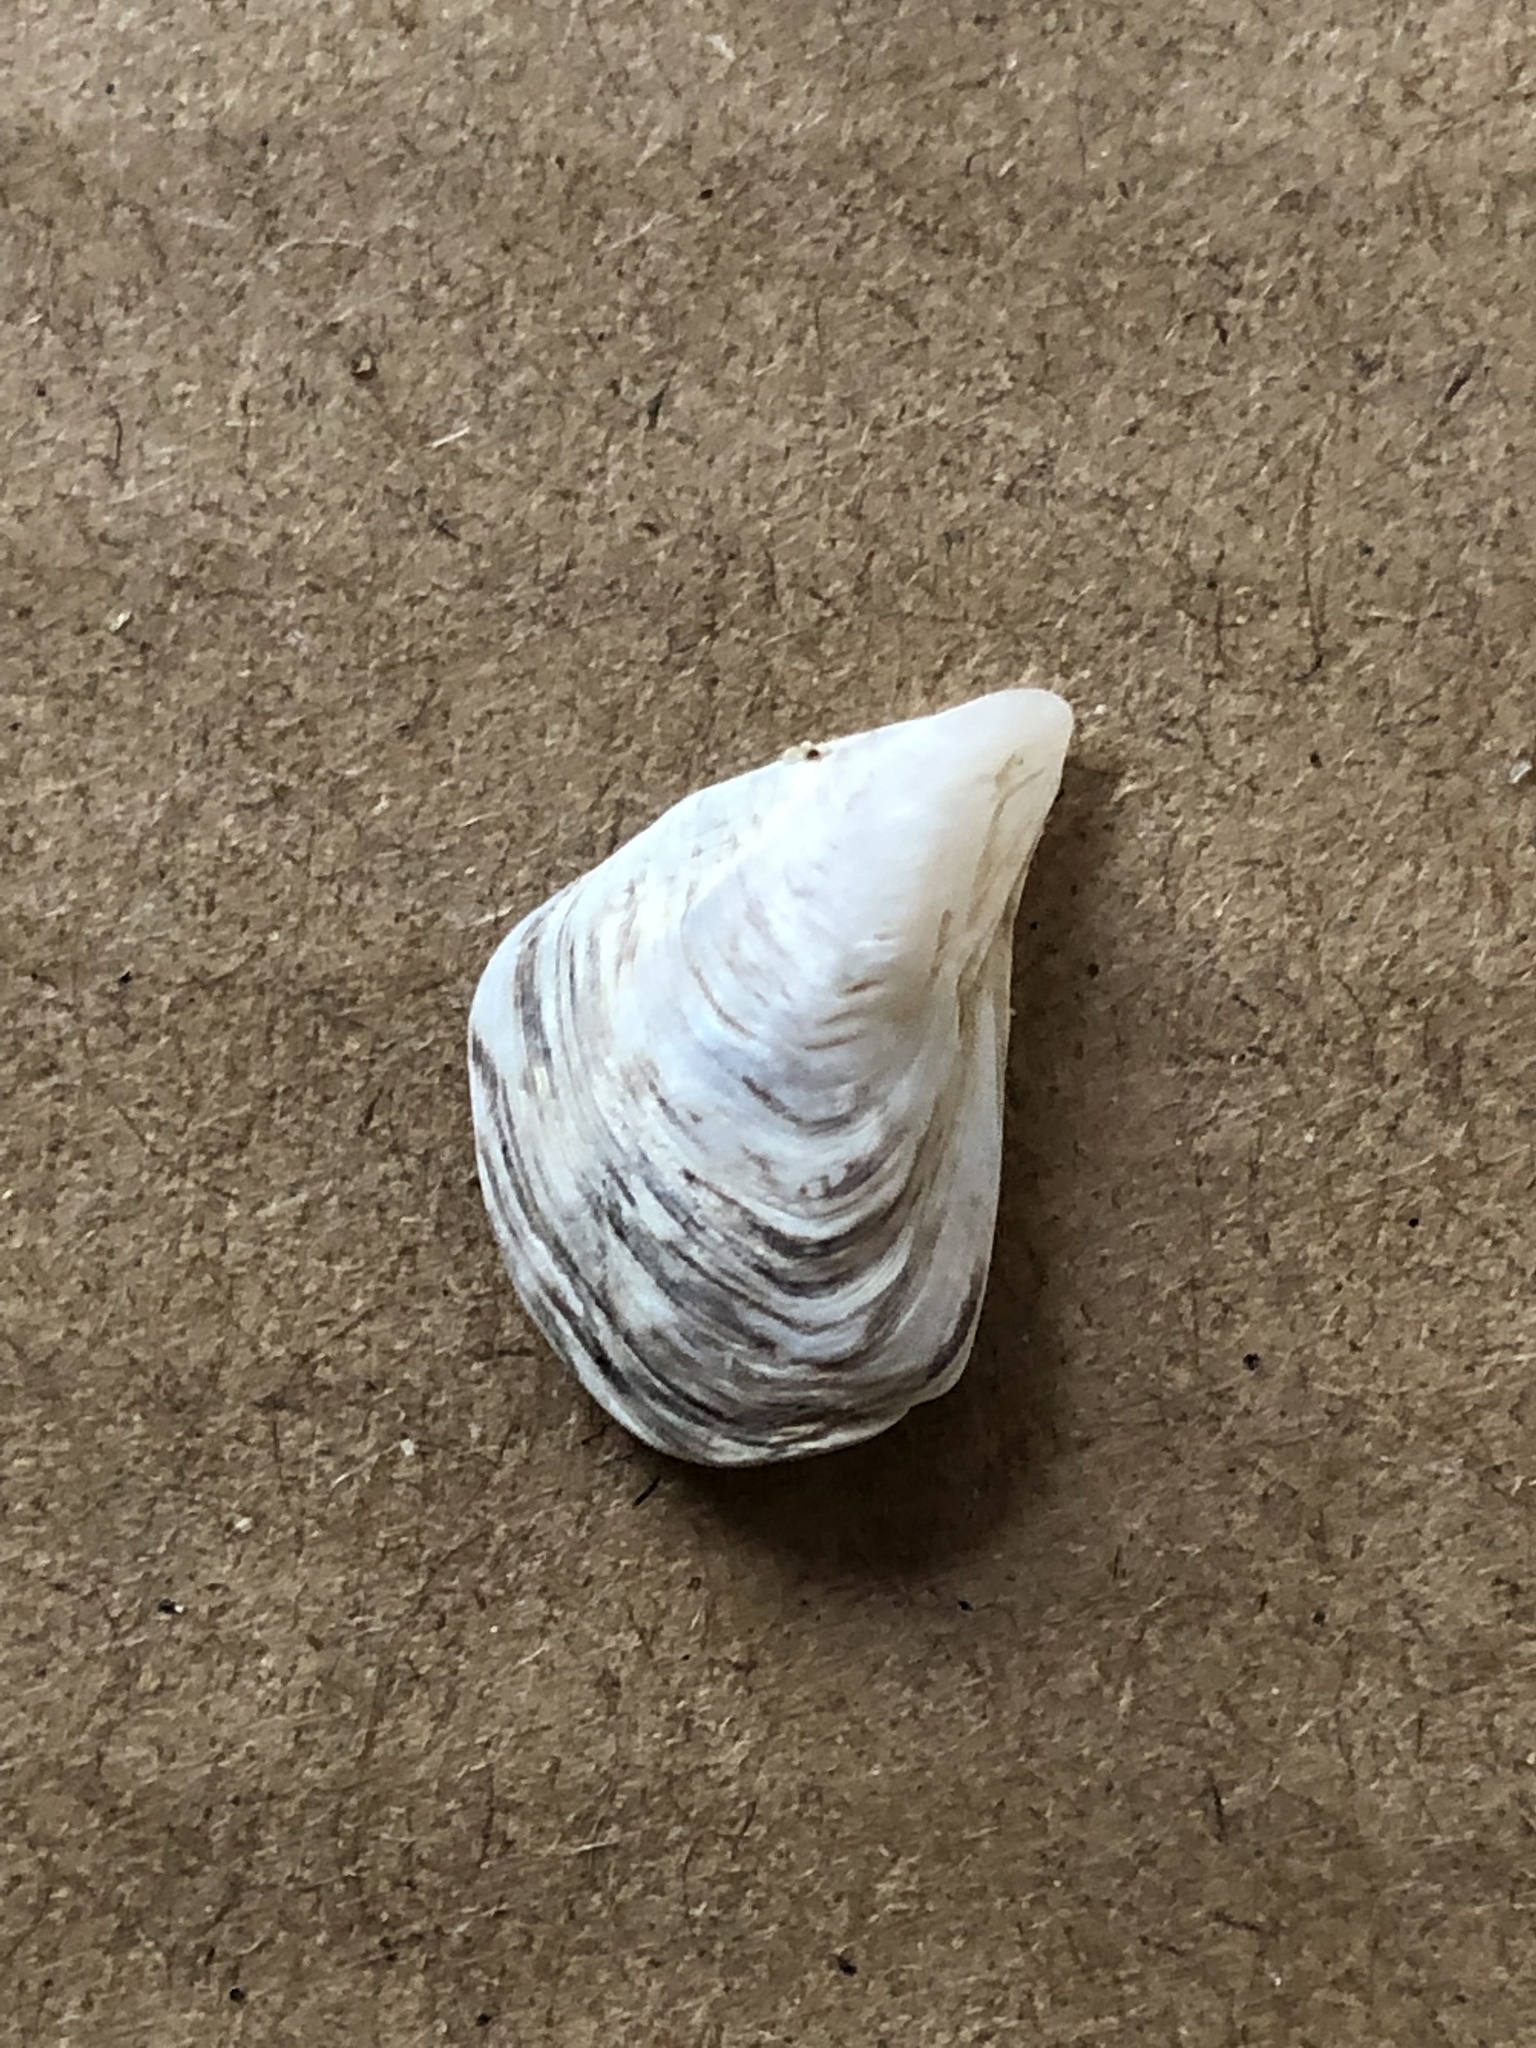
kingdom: Animalia
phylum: Mollusca
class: Bivalvia
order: Myida
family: Dreissenidae
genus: Dreissena
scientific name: Dreissena bugensis
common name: Quagga mussel
